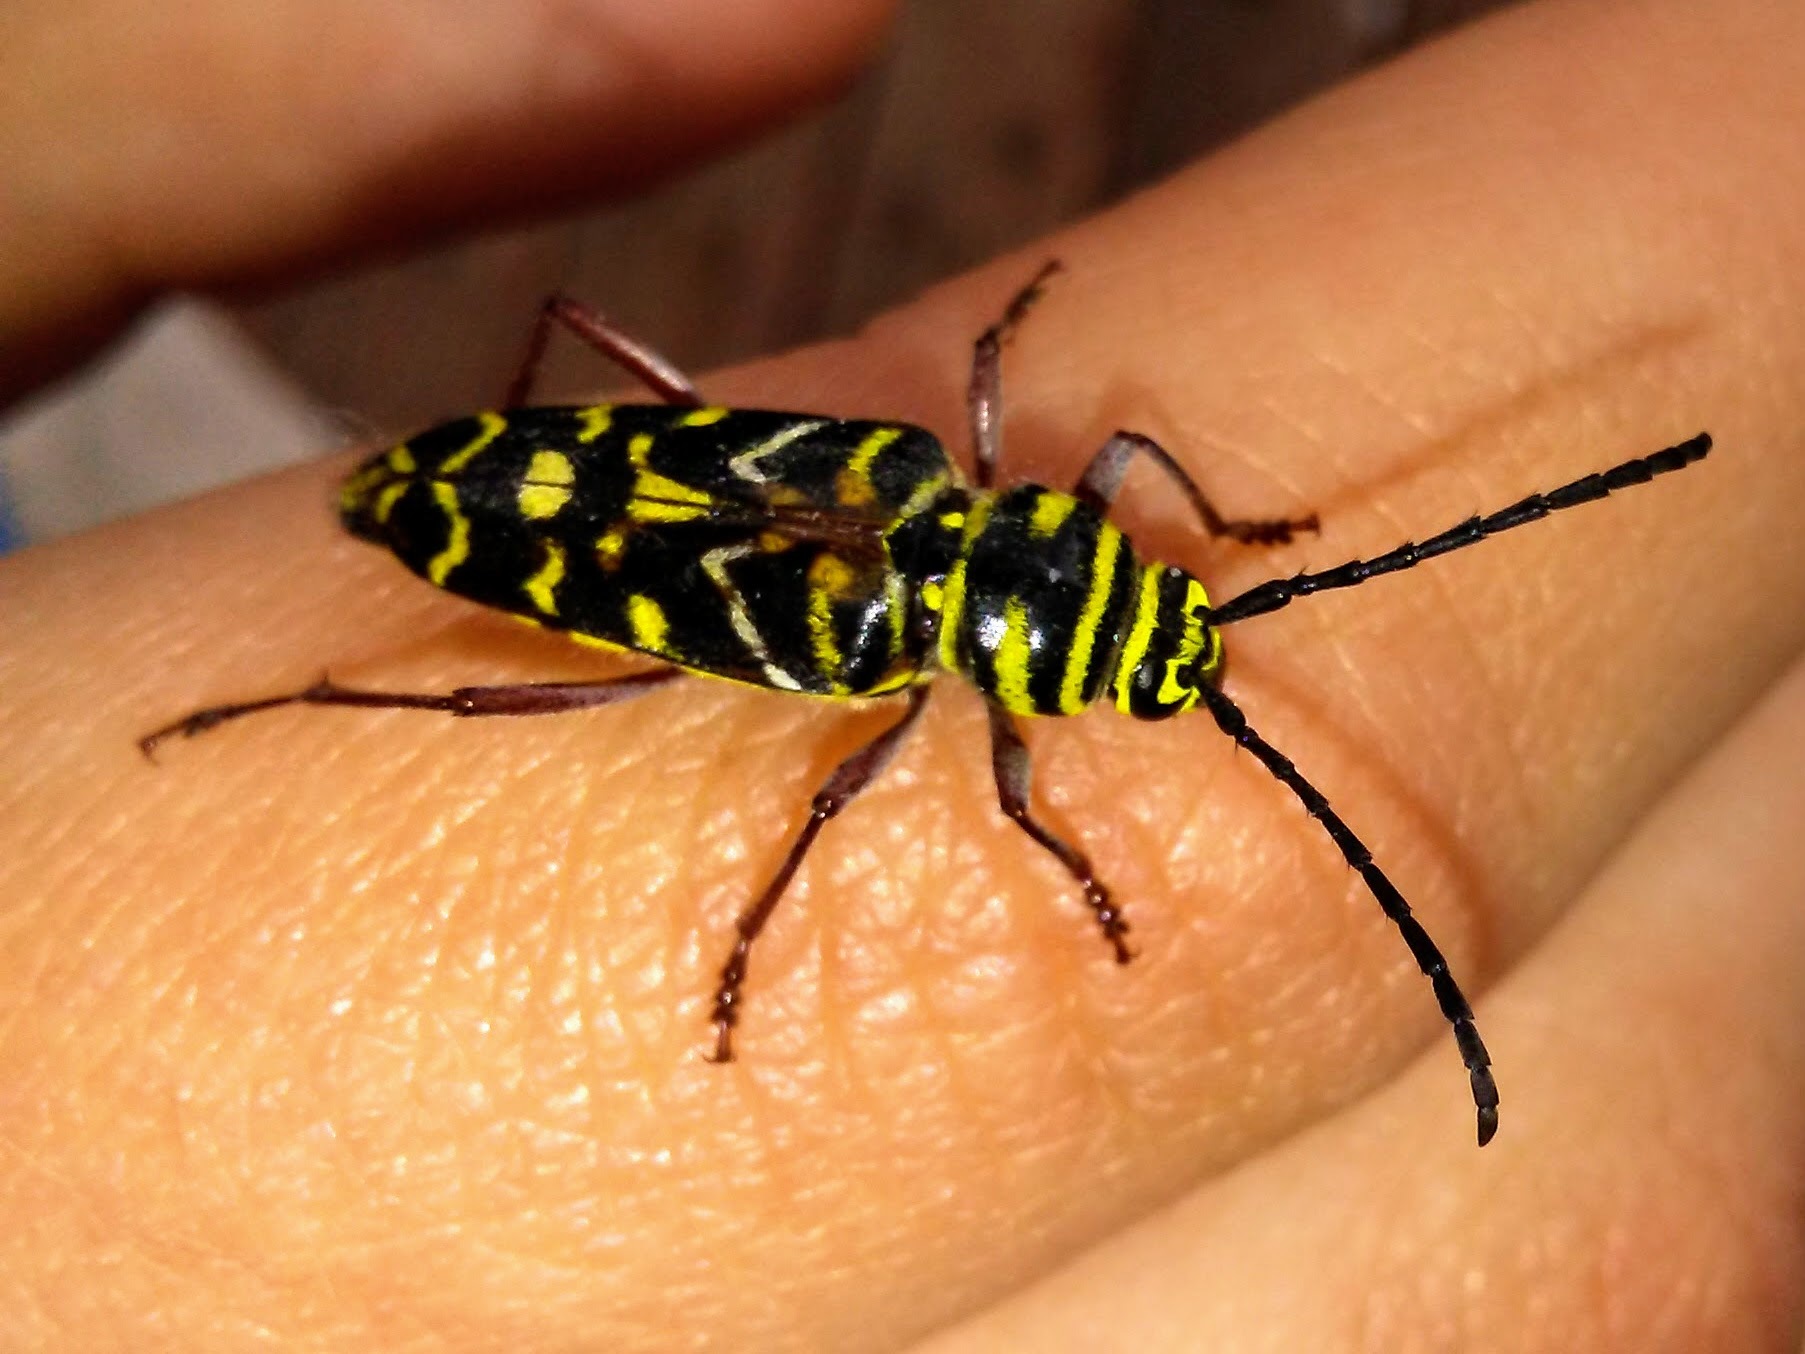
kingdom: Animalia
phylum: Arthropoda
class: Insecta
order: Coleoptera
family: Cerambycidae
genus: Megacyllene
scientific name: Megacyllene caryae
